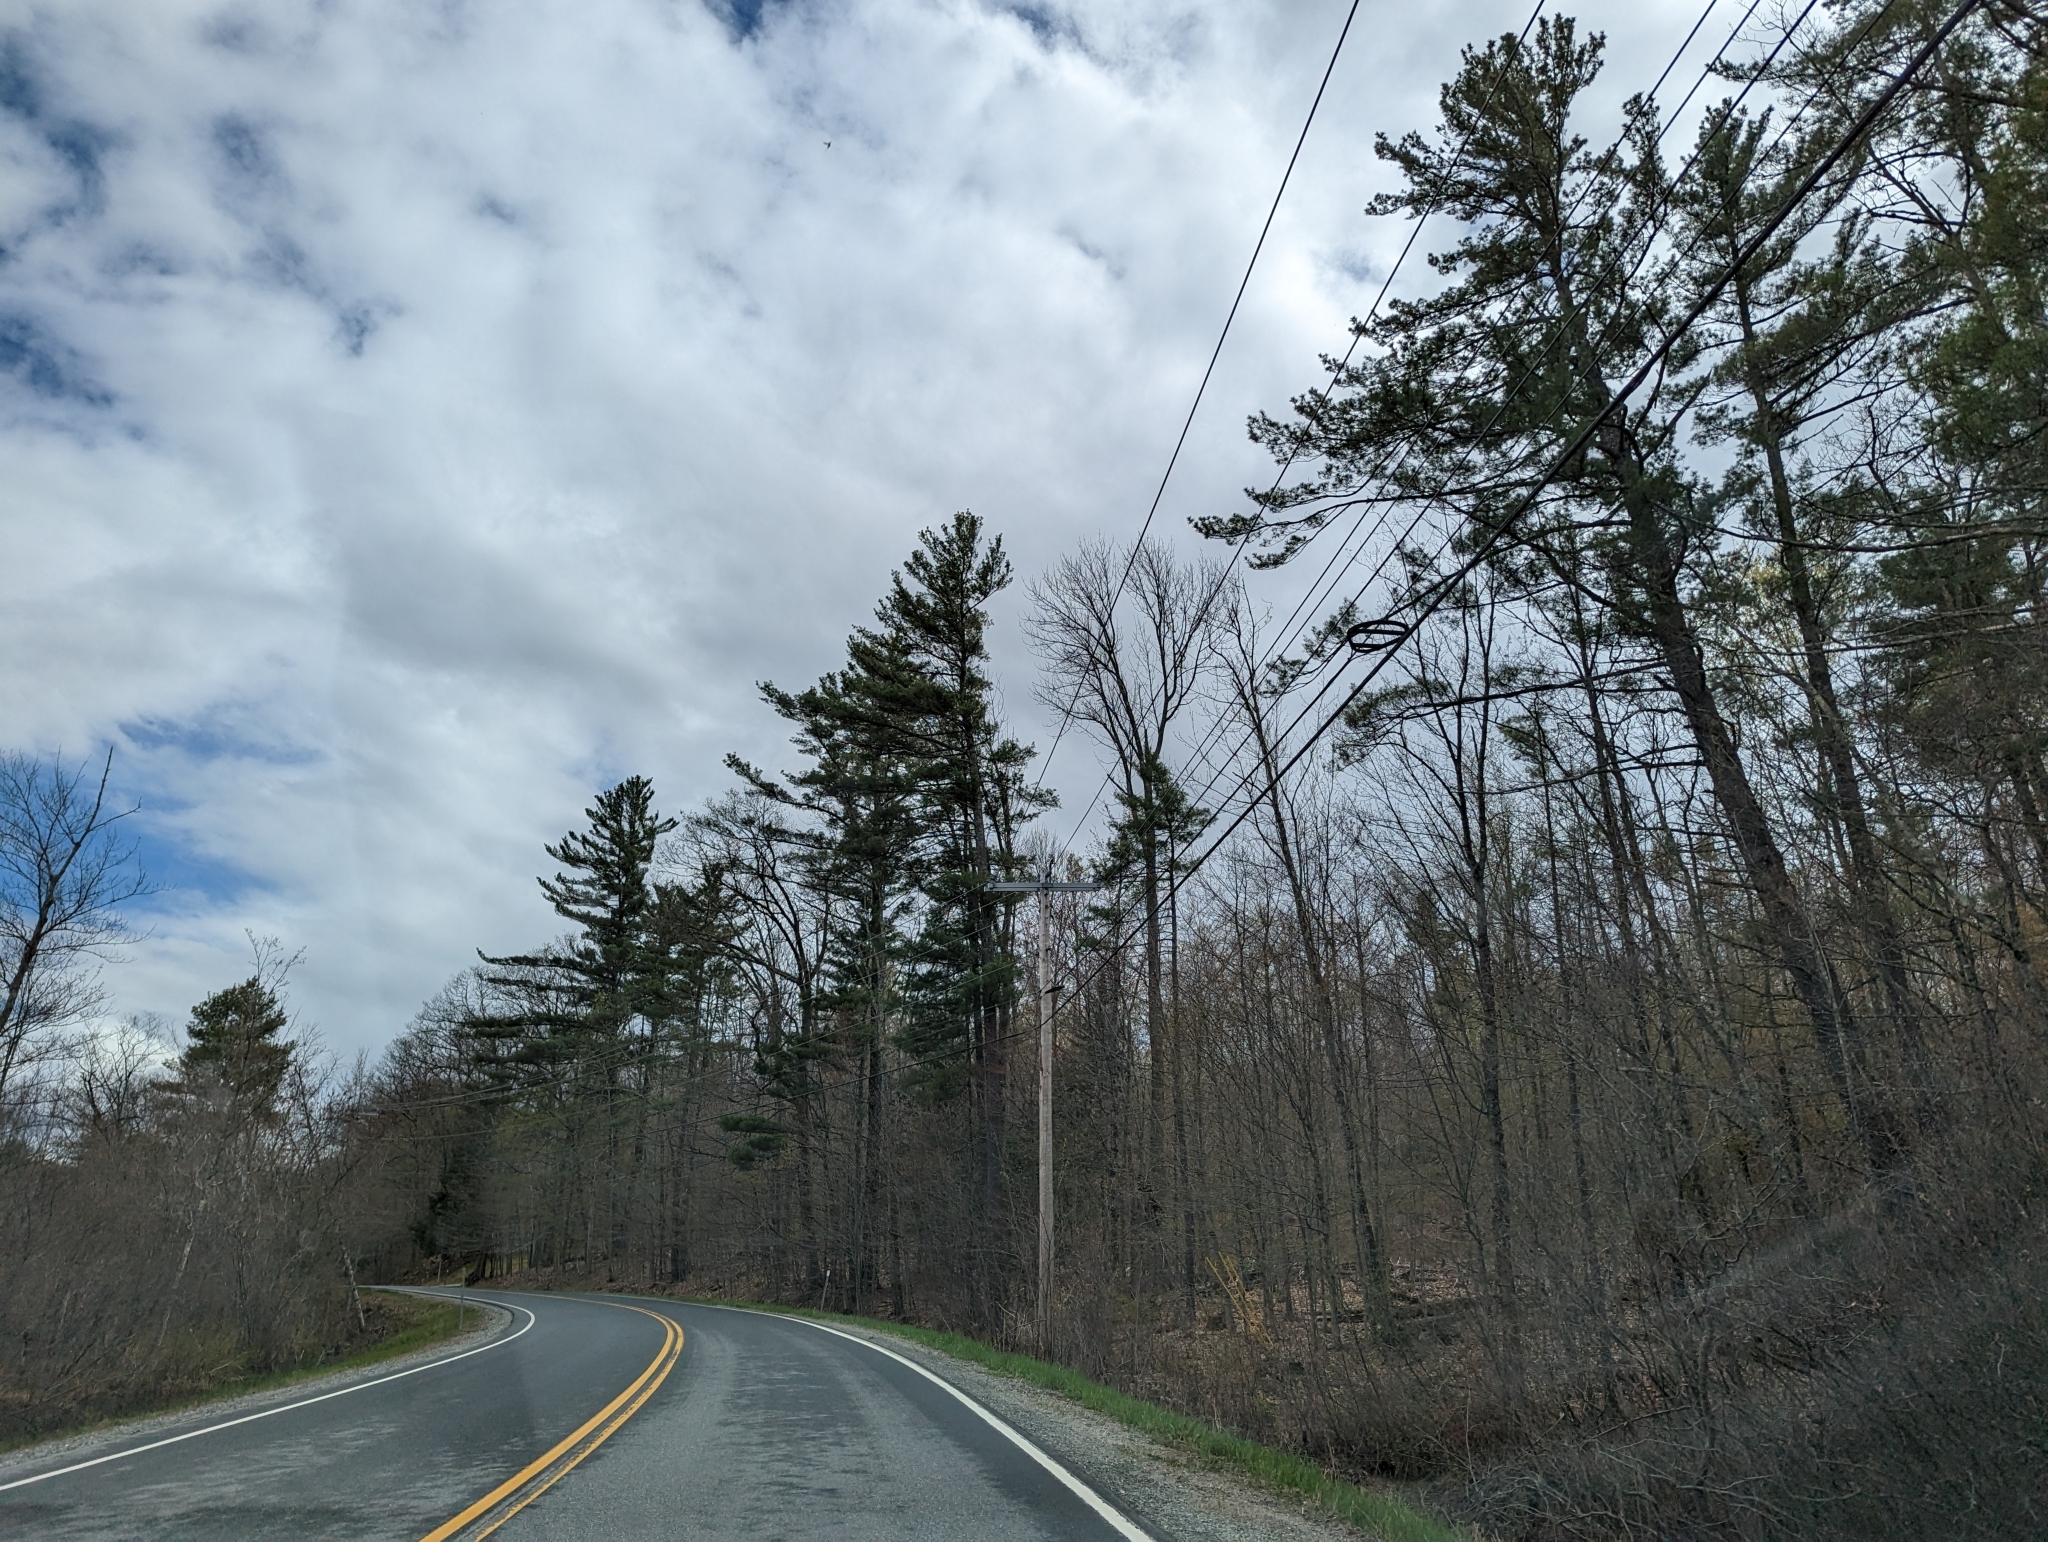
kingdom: Plantae
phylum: Tracheophyta
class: Pinopsida
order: Pinales
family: Pinaceae
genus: Pinus
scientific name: Pinus strobus
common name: Weymouth pine
